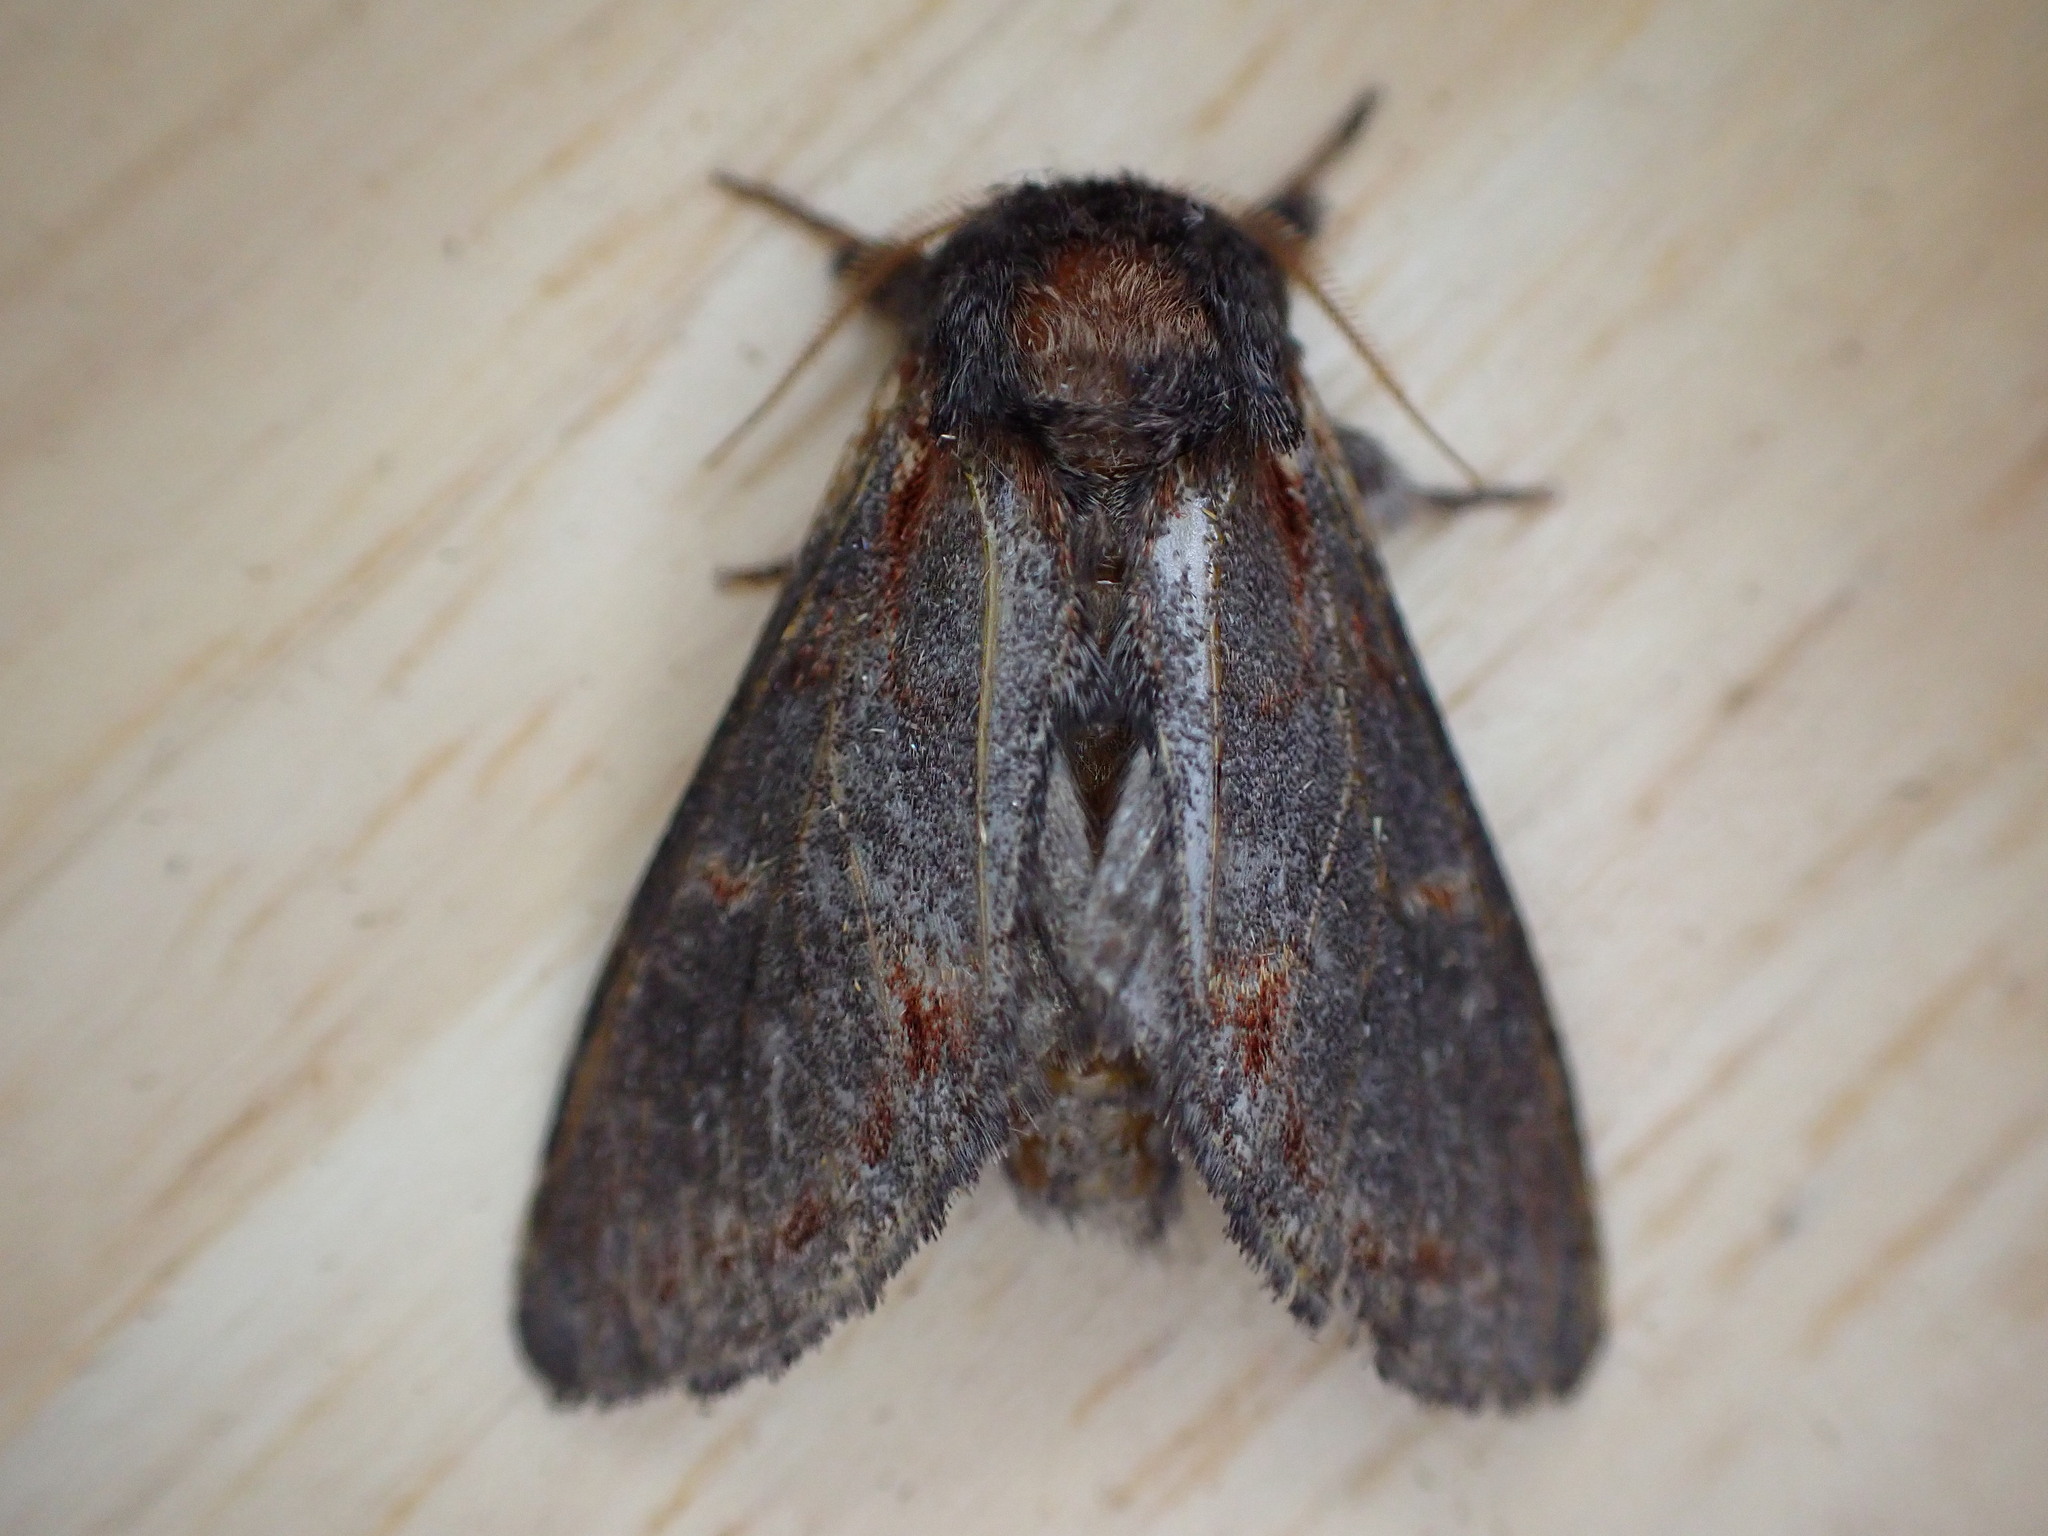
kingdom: Animalia
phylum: Arthropoda
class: Insecta
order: Lepidoptera
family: Notodontidae
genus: Notodonta
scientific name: Notodonta dromedarius
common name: Iron prominent
